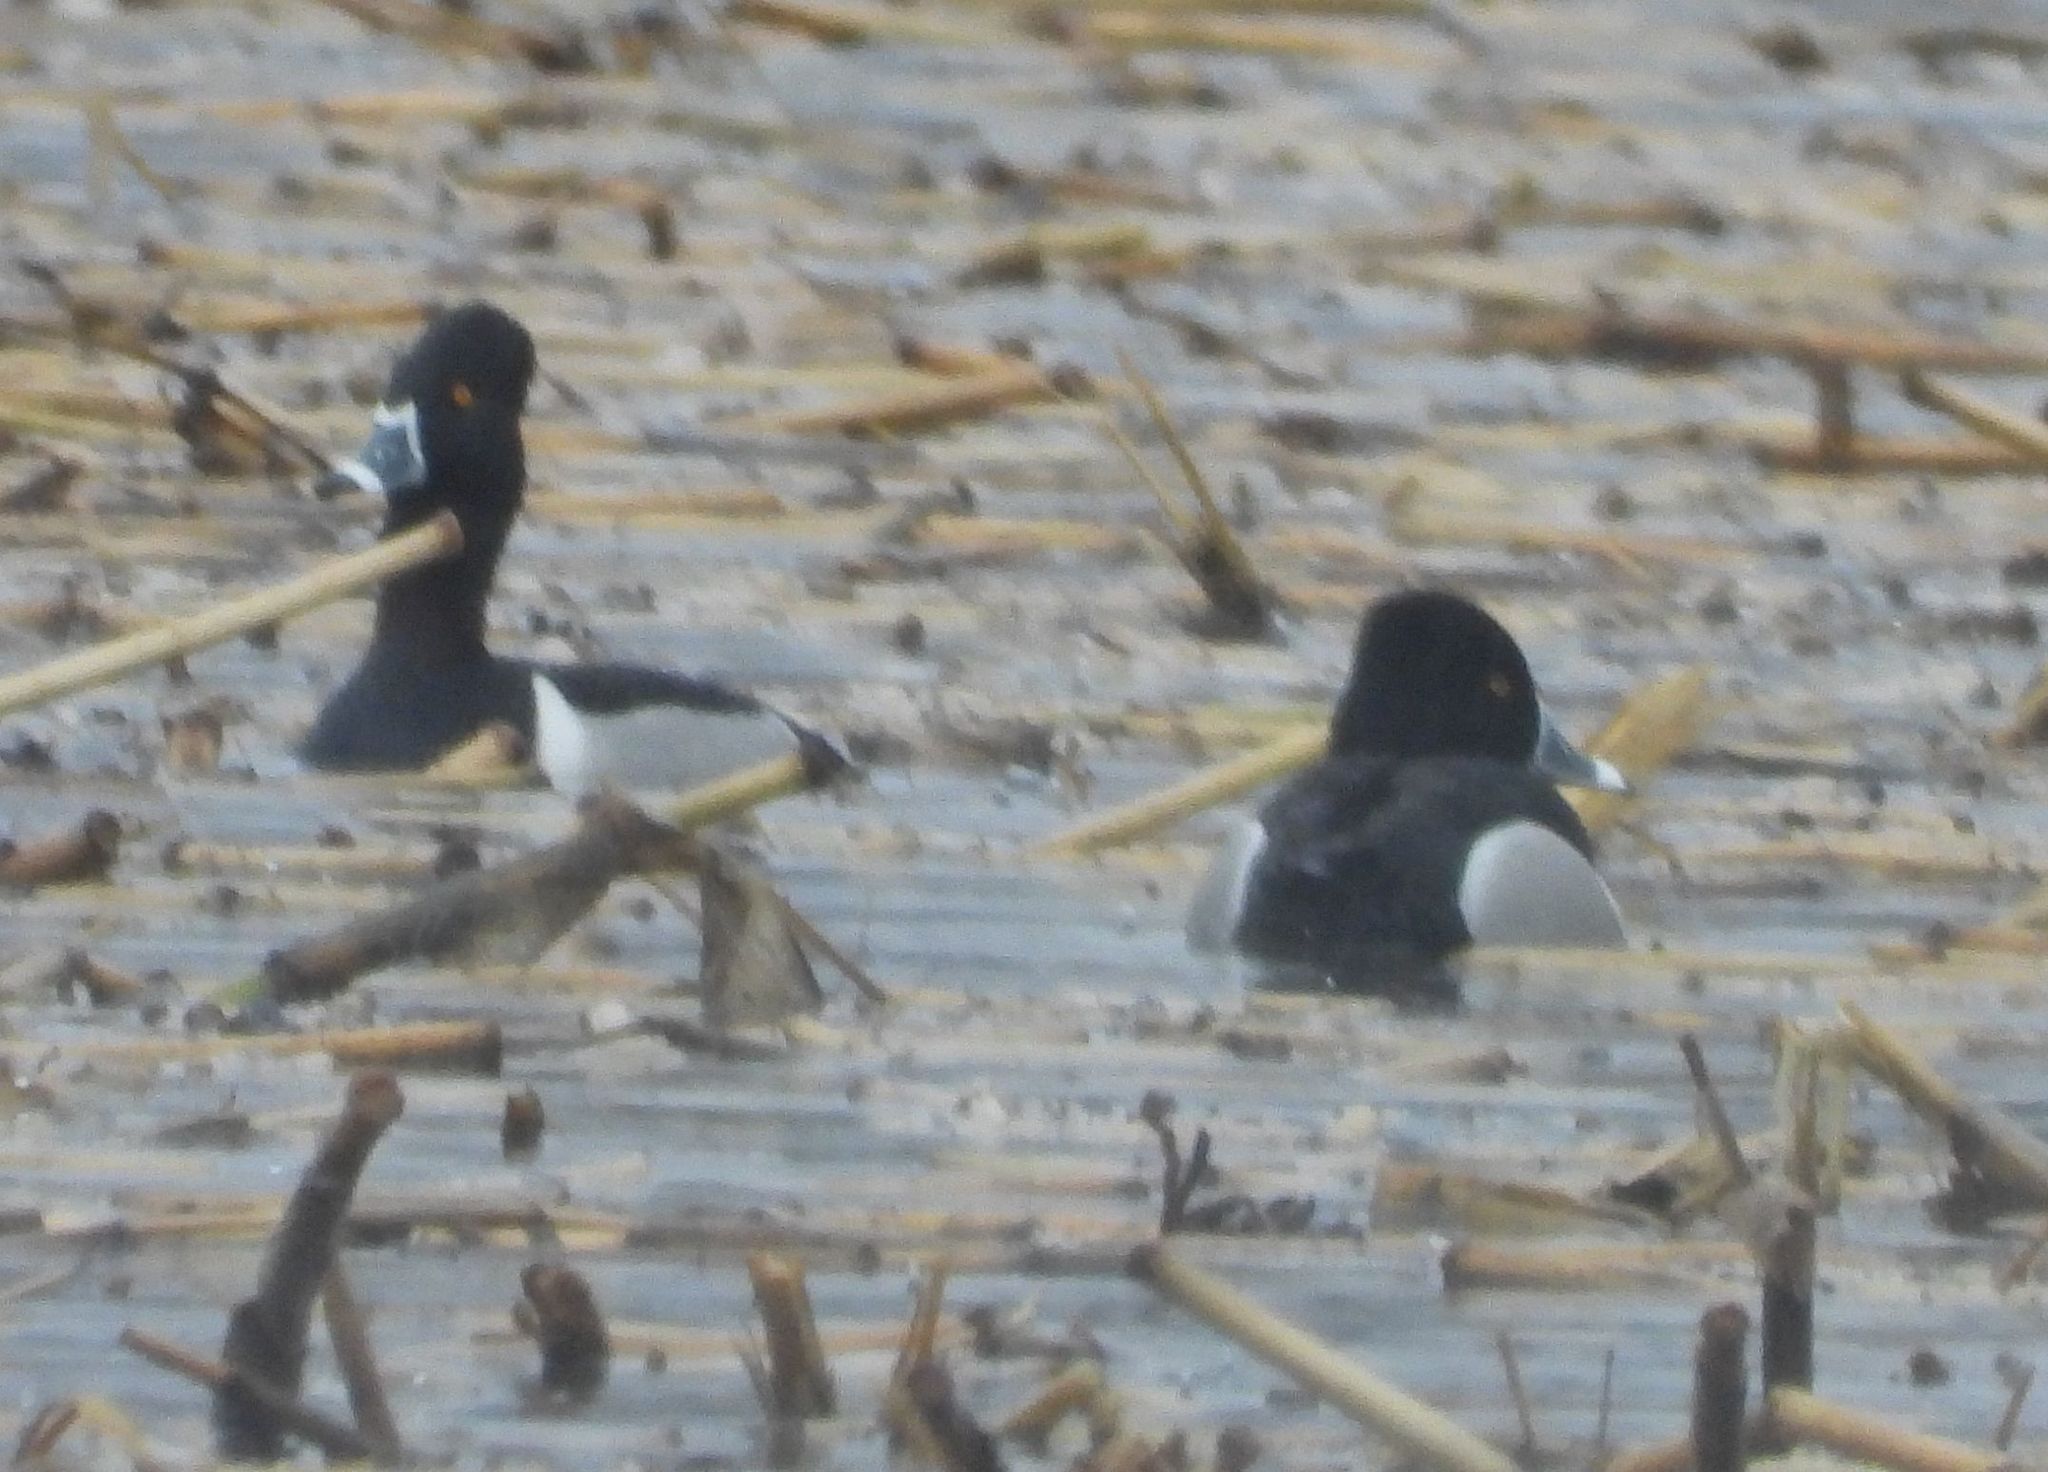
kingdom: Animalia
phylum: Chordata
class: Aves
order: Anseriformes
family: Anatidae
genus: Aythya
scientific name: Aythya collaris
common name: Ring-necked duck
